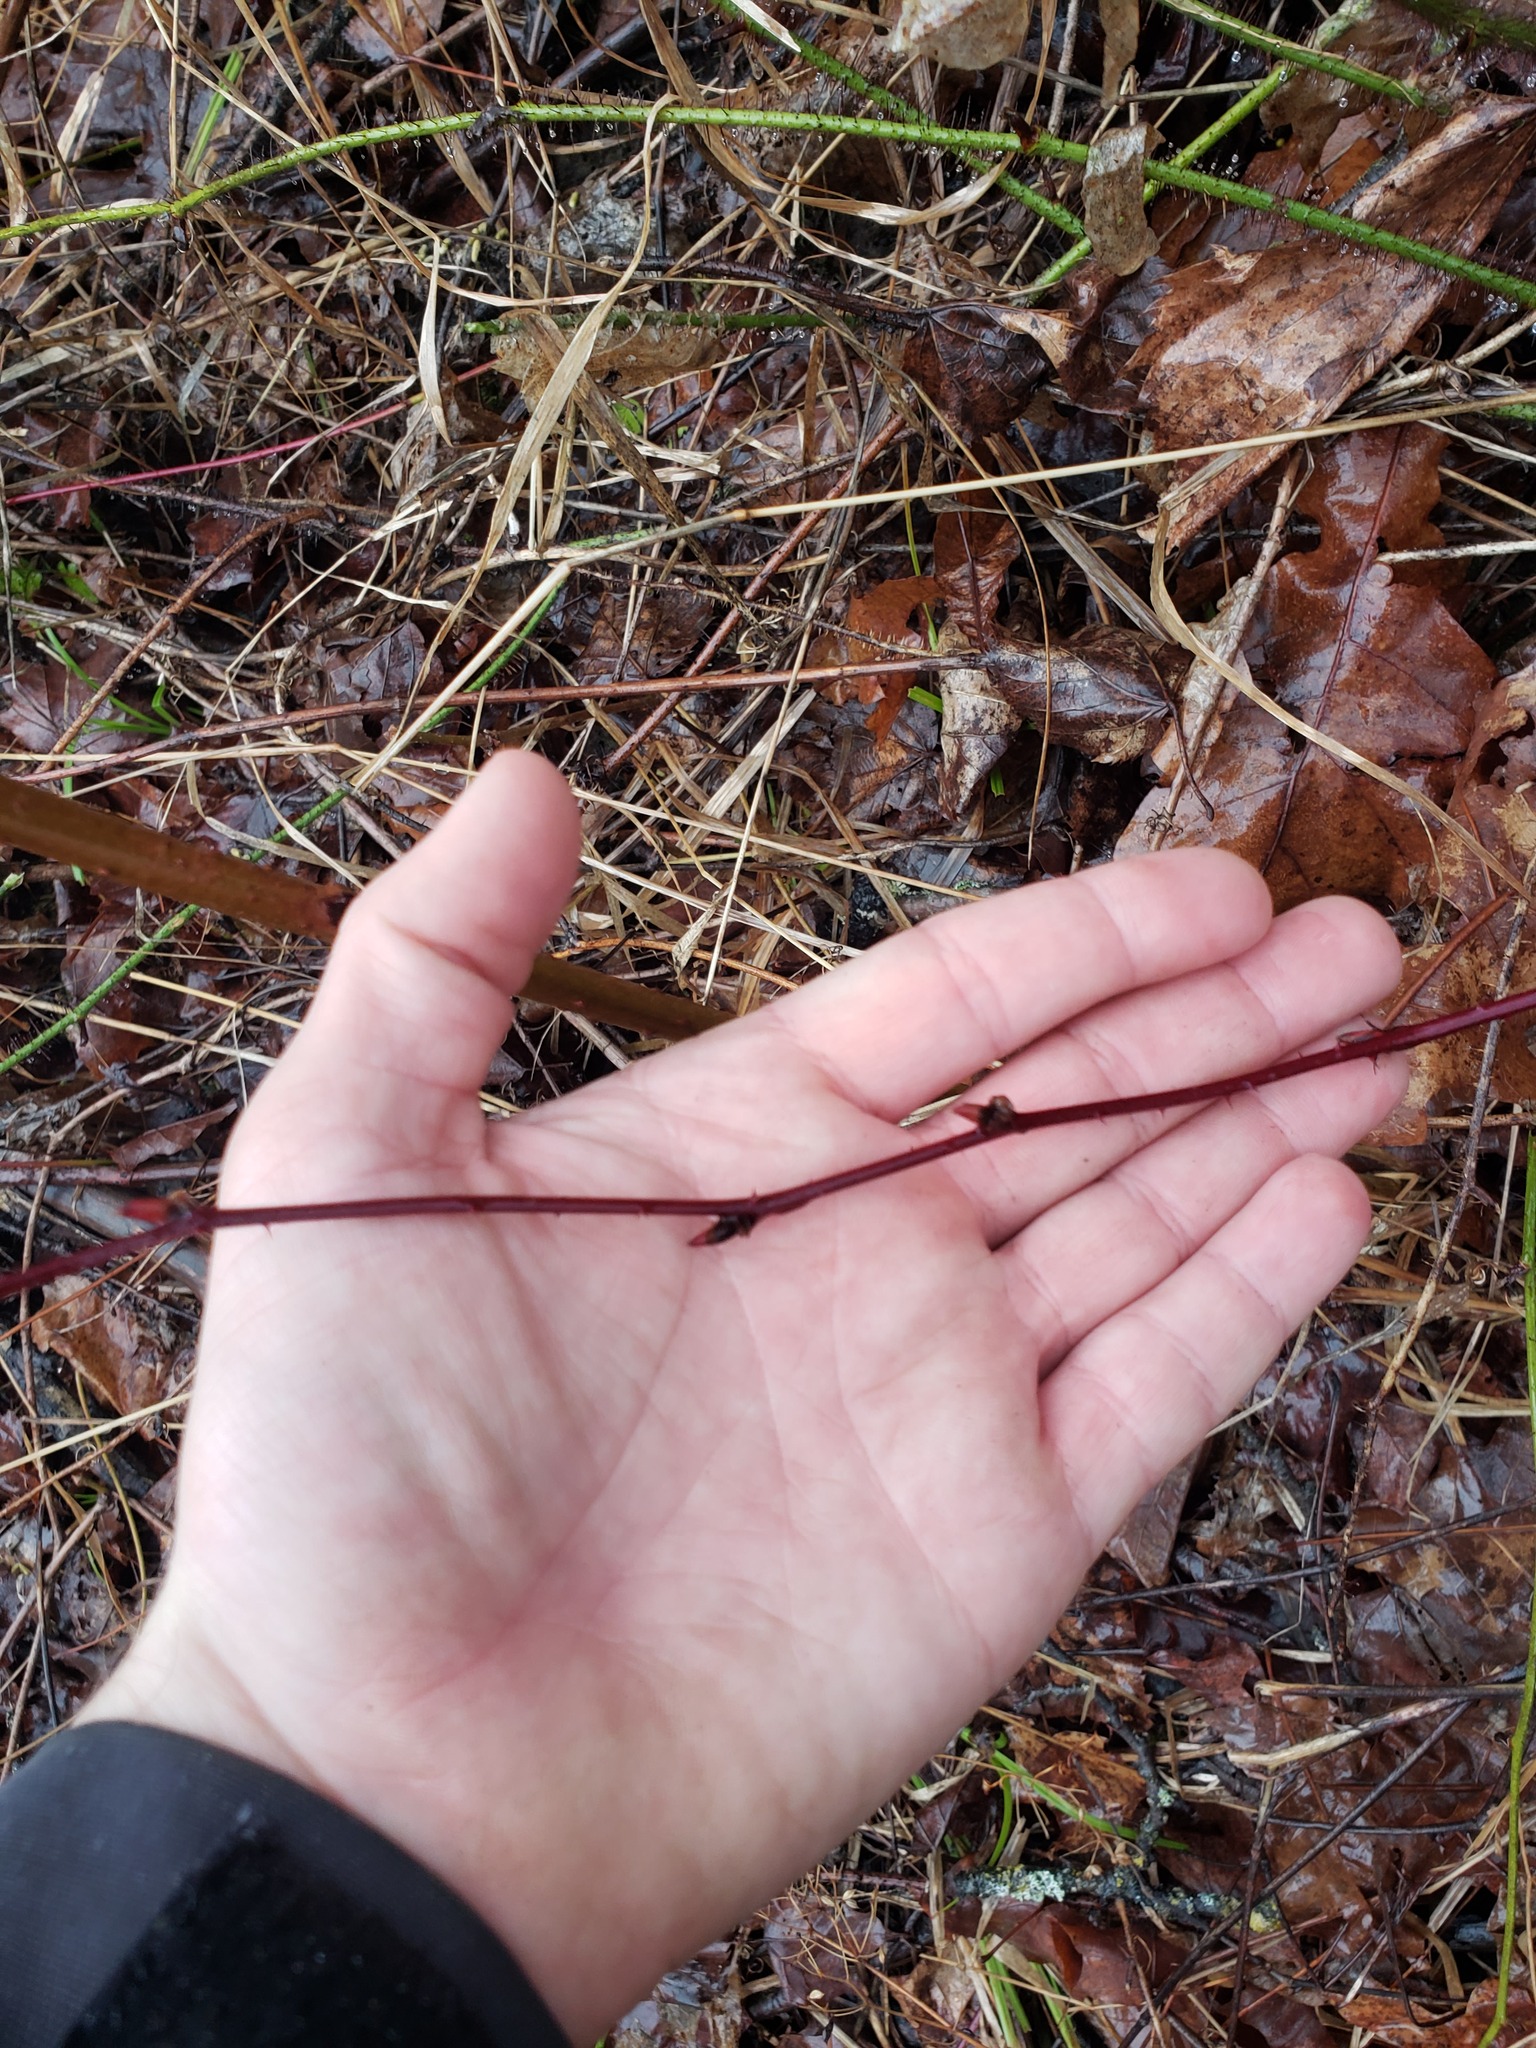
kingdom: Plantae
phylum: Tracheophyta
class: Magnoliopsida
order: Rosales
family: Rosaceae
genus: Rubus
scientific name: Rubus canadensis
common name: Smooth blackberry
